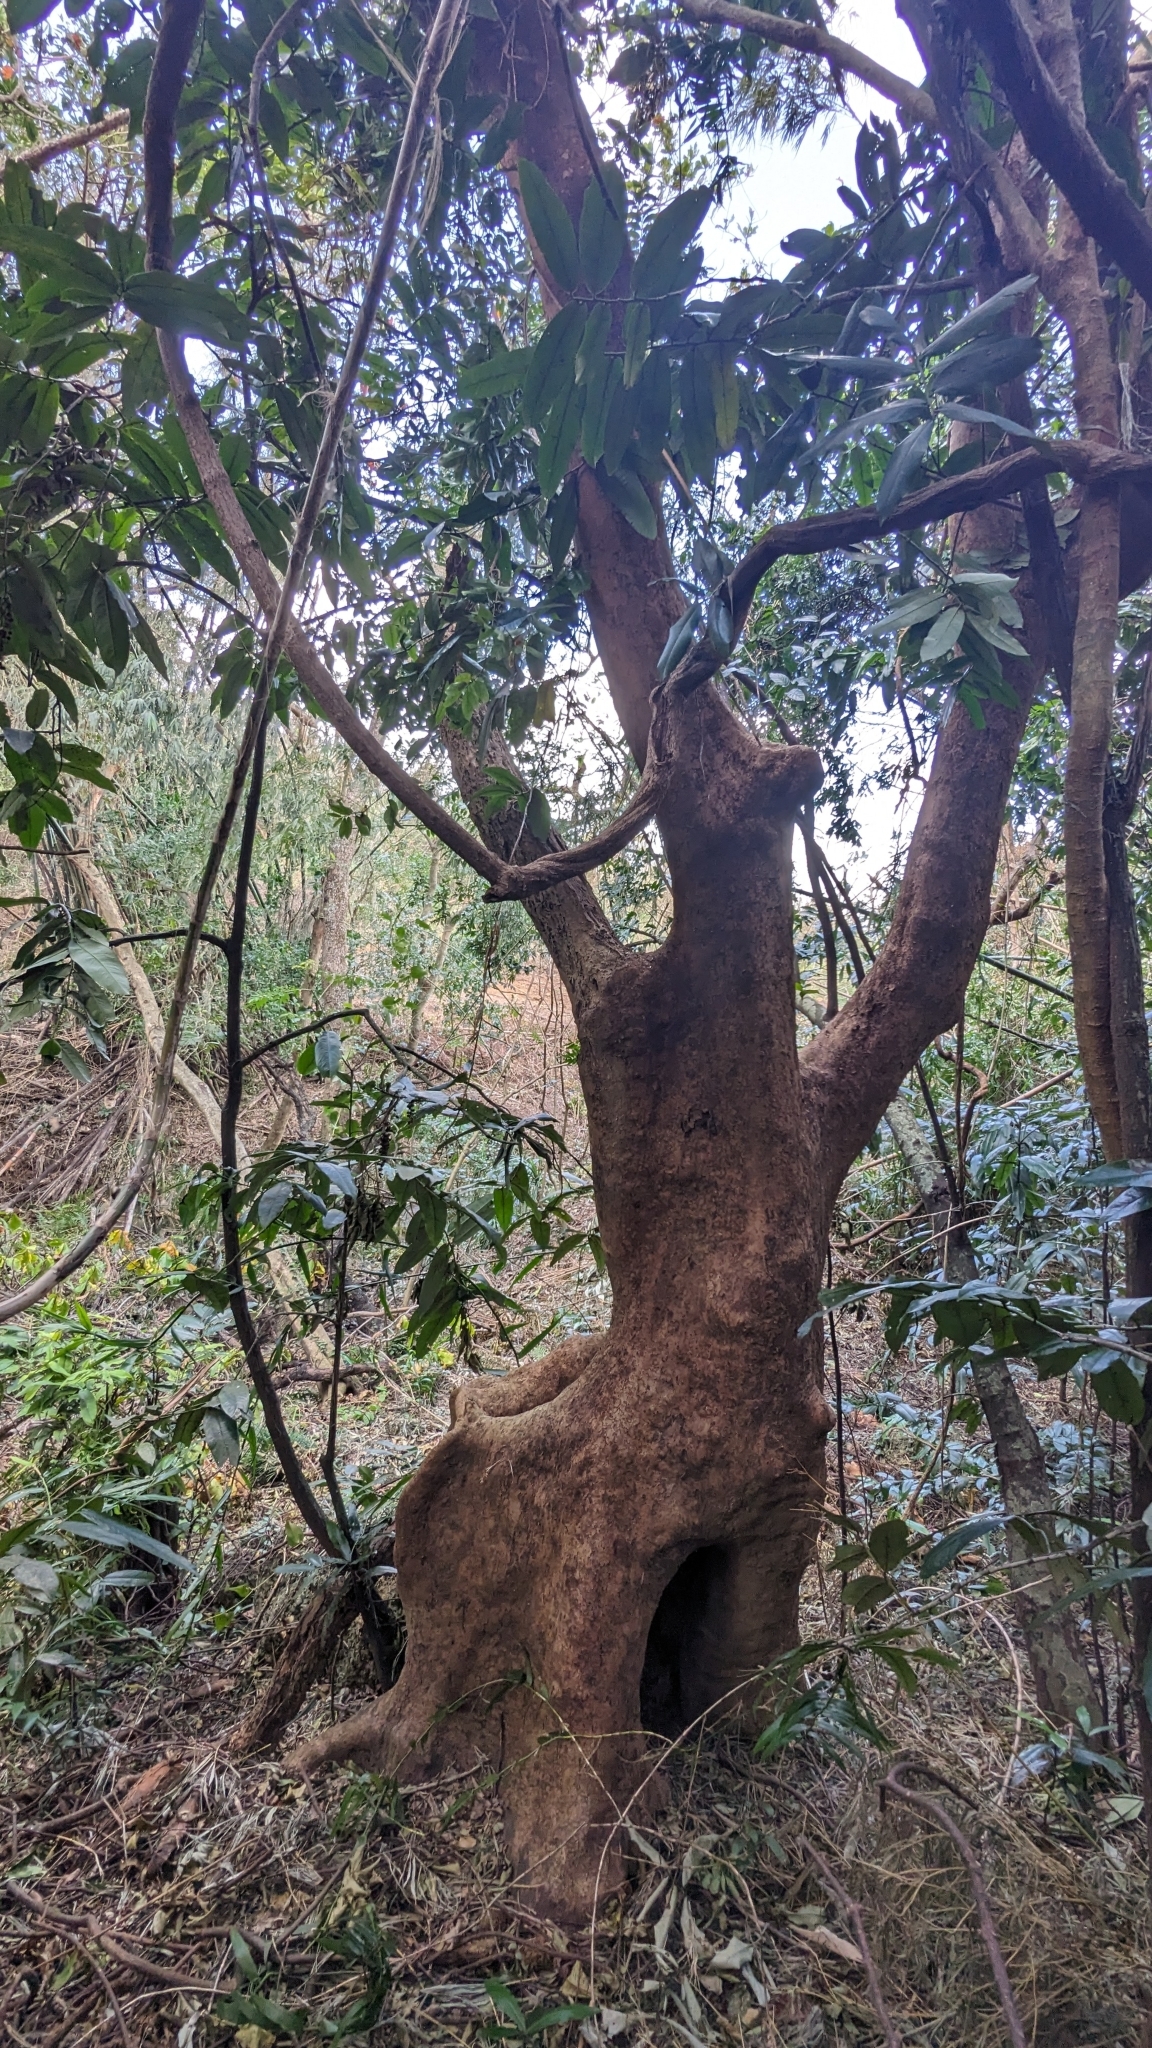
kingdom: Plantae
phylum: Tracheophyta
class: Magnoliopsida
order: Malpighiales
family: Phyllanthaceae
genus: Bischofia
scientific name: Bischofia javanica
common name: Javanese bishopwood
